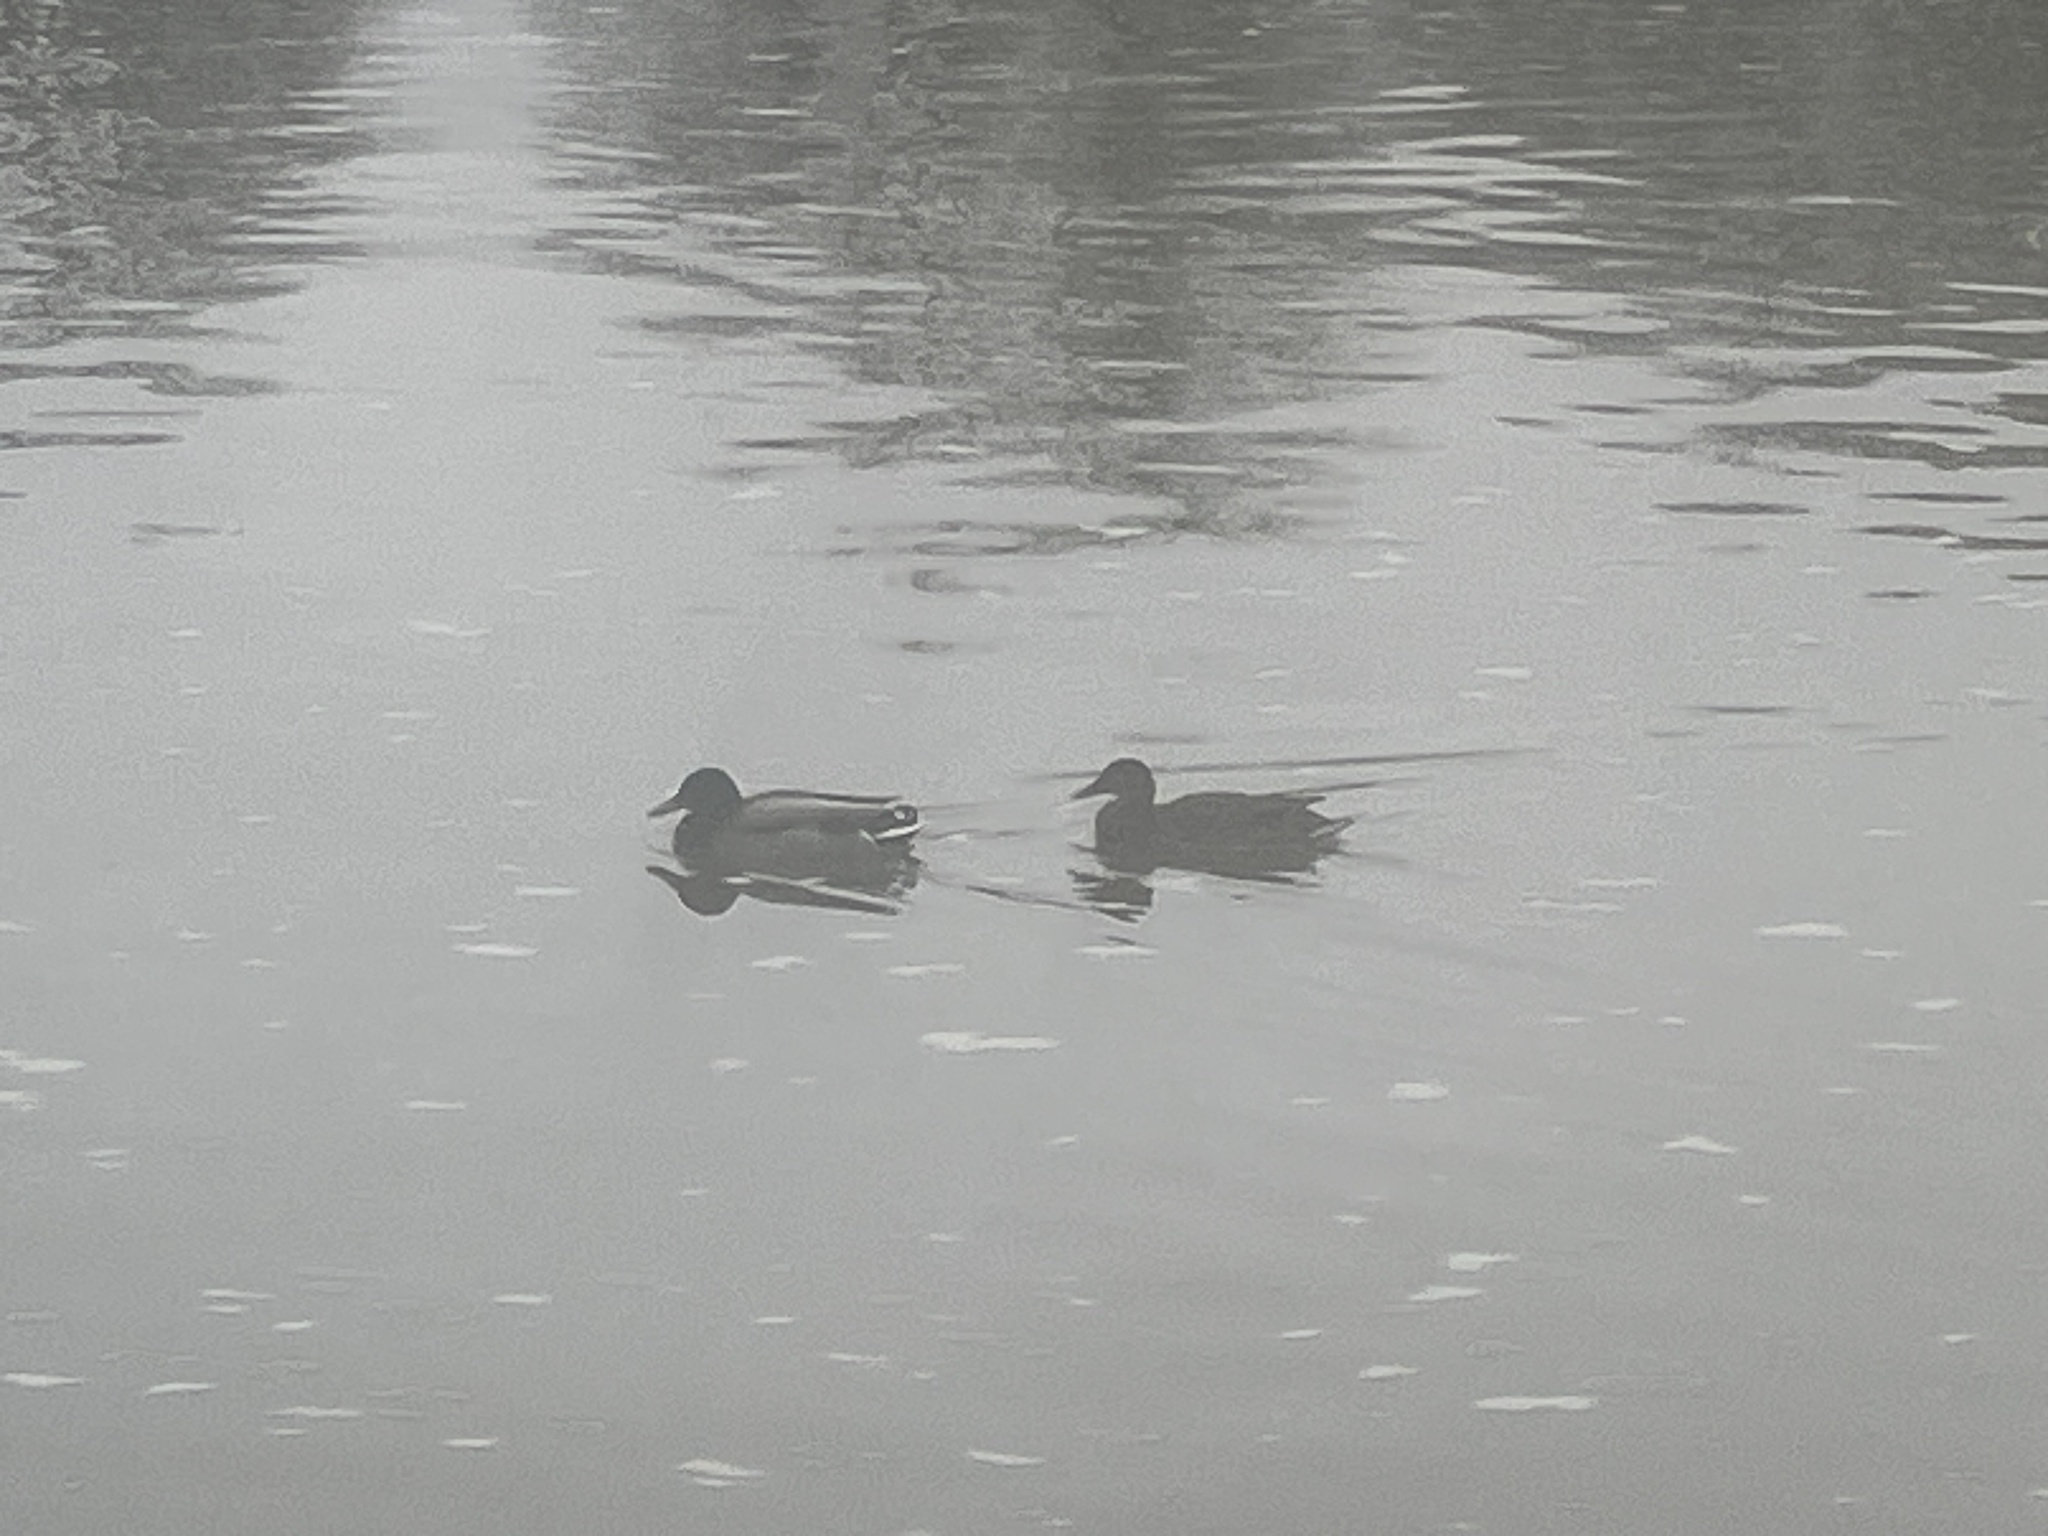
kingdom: Animalia
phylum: Chordata
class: Aves
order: Anseriformes
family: Anatidae
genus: Anas
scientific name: Anas platyrhynchos
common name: Mallard
